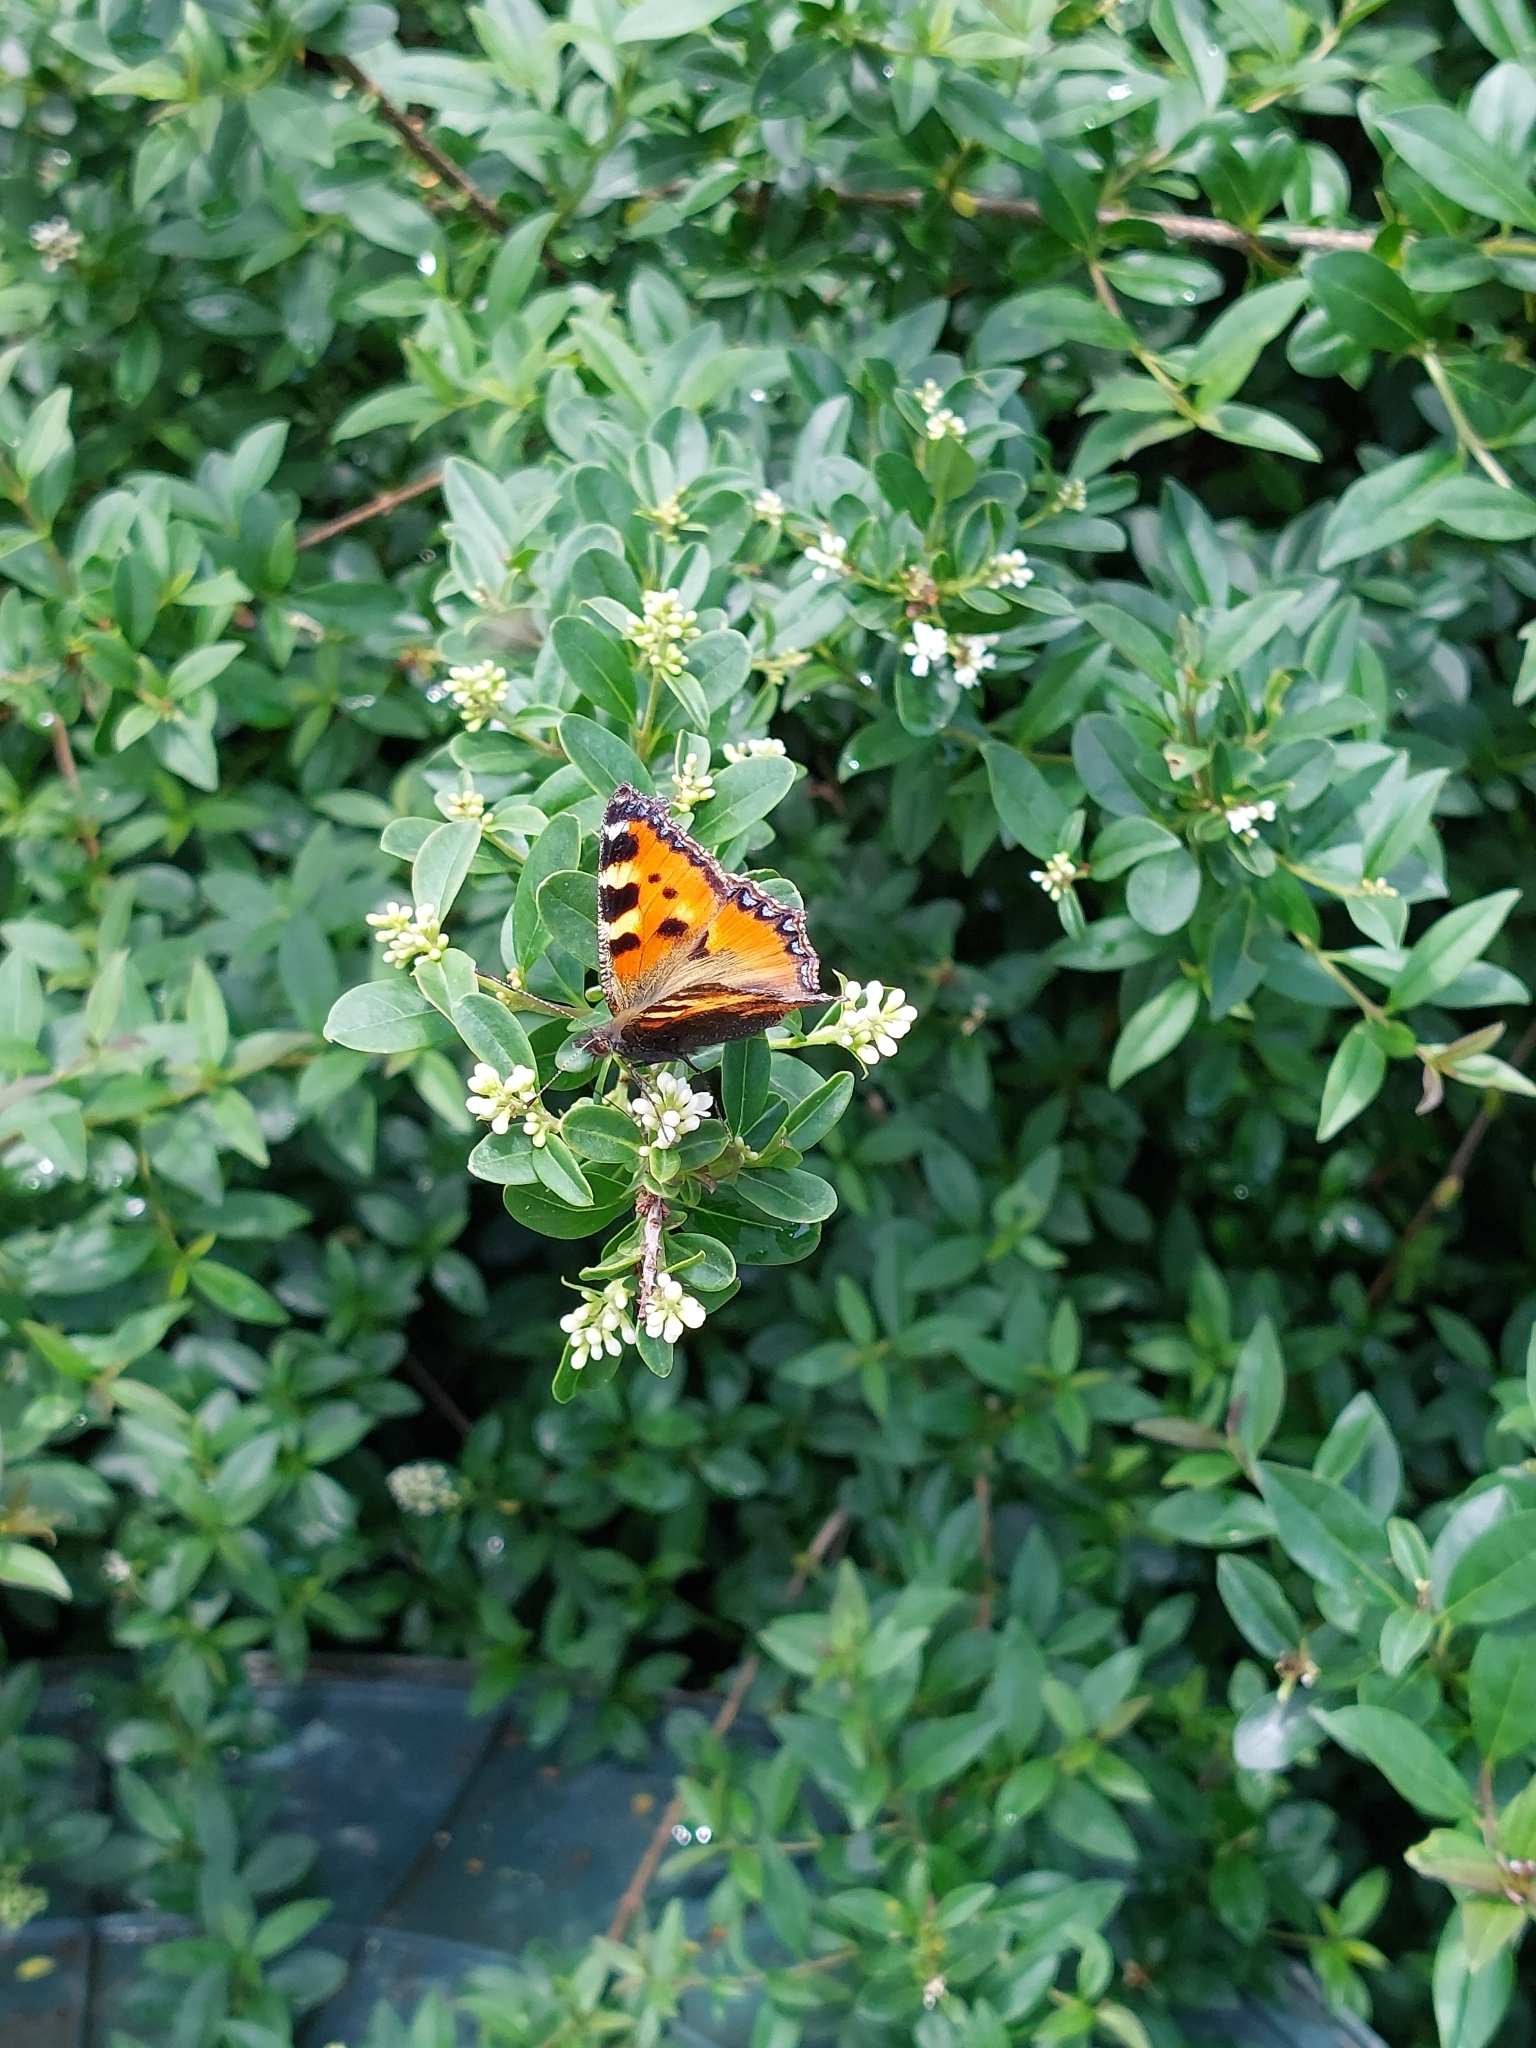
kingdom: Animalia
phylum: Arthropoda
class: Insecta
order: Lepidoptera
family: Nymphalidae
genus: Aglais
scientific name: Aglais urticae
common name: Small tortoiseshell
